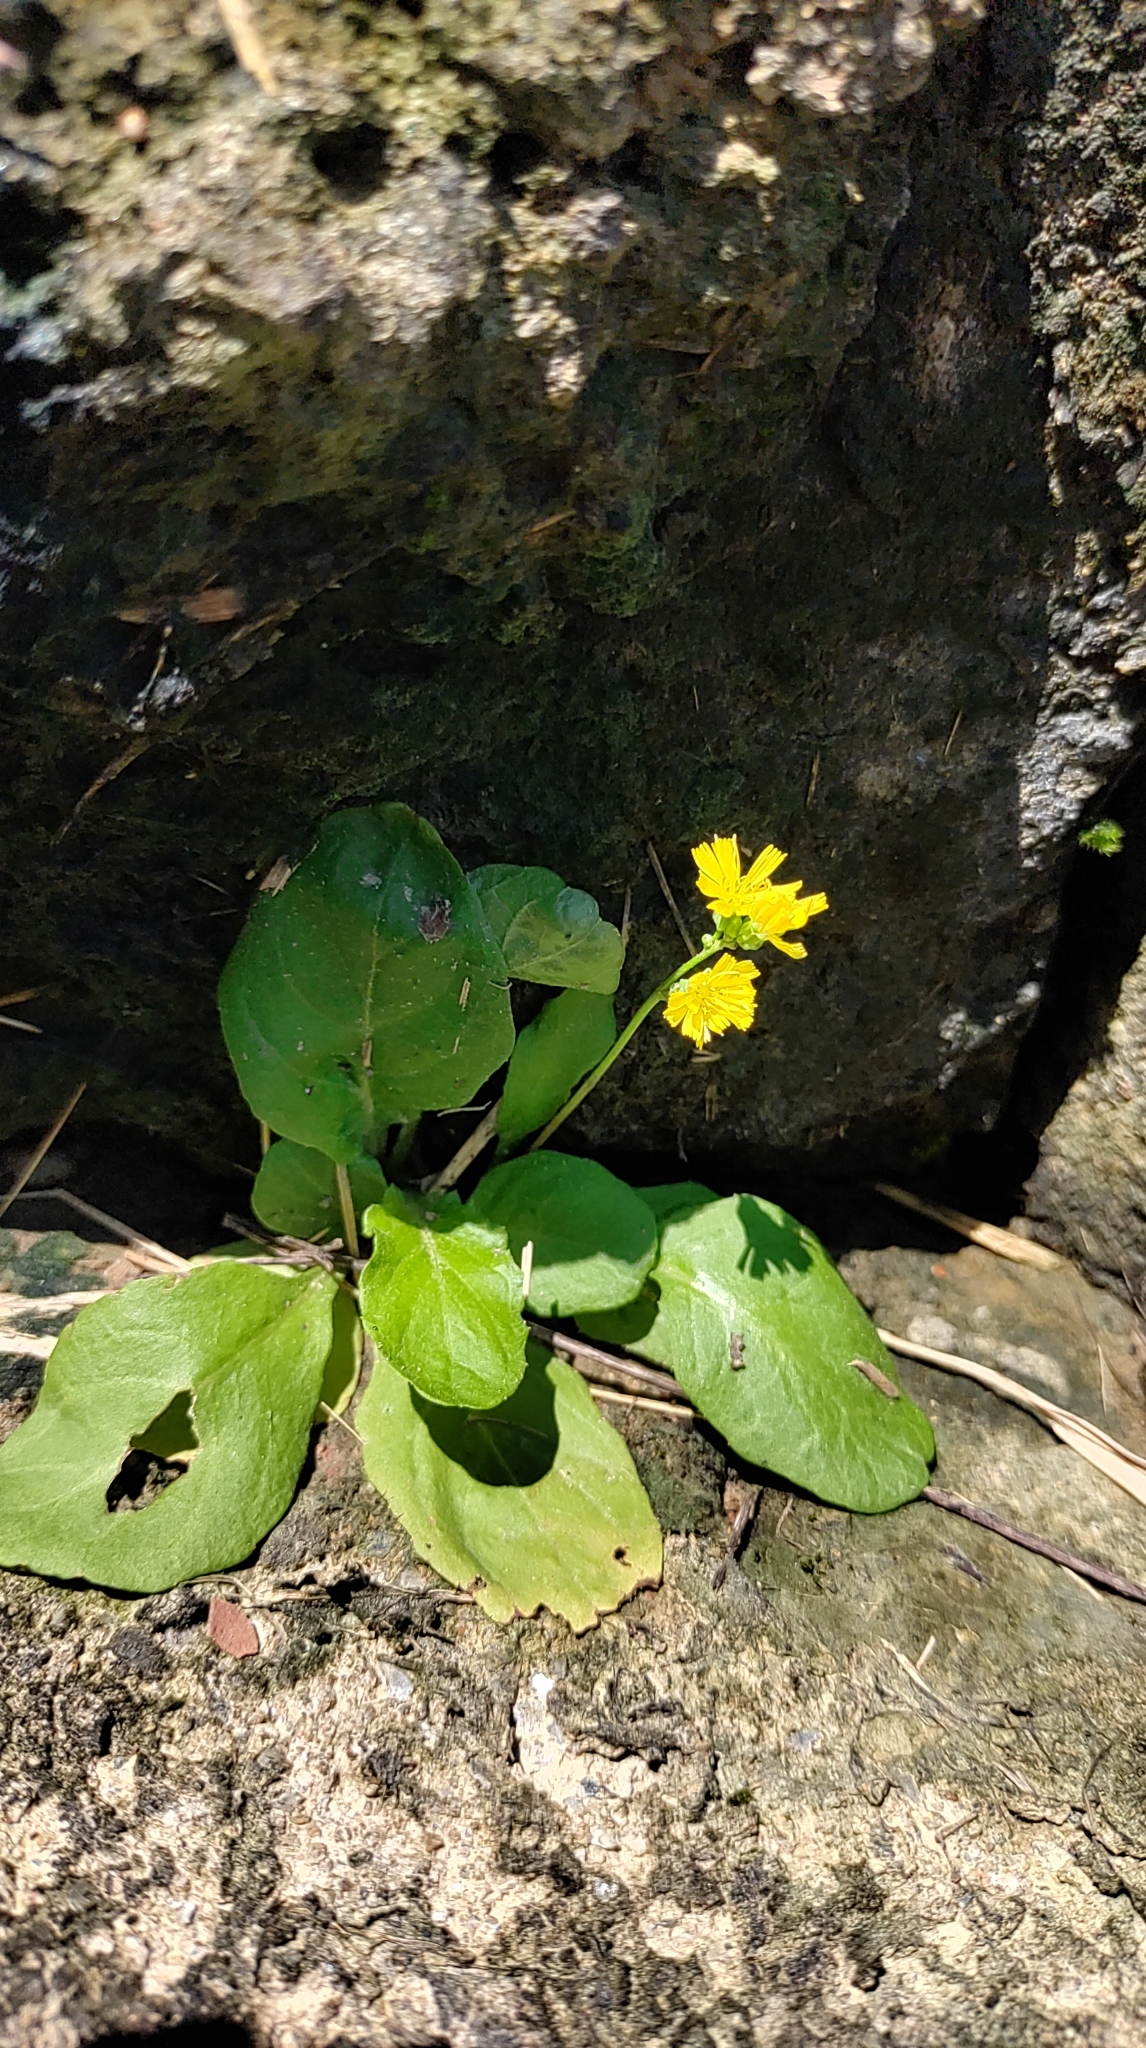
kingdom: Plantae
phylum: Tracheophyta
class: Magnoliopsida
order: Asterales
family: Asteraceae
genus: Youngia
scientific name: Youngia japonica
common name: Oriental false hawksbeard
